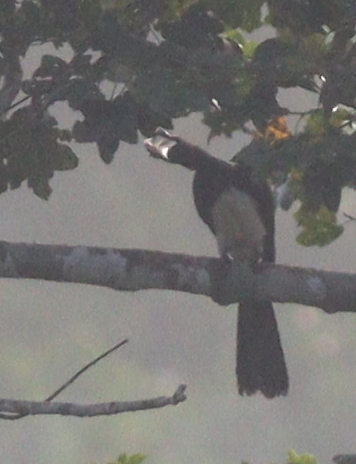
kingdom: Animalia
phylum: Chordata
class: Aves
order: Bucerotiformes
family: Bucerotidae
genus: Lophoceros
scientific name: Lophoceros fasciatus
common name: African pied hornbill
